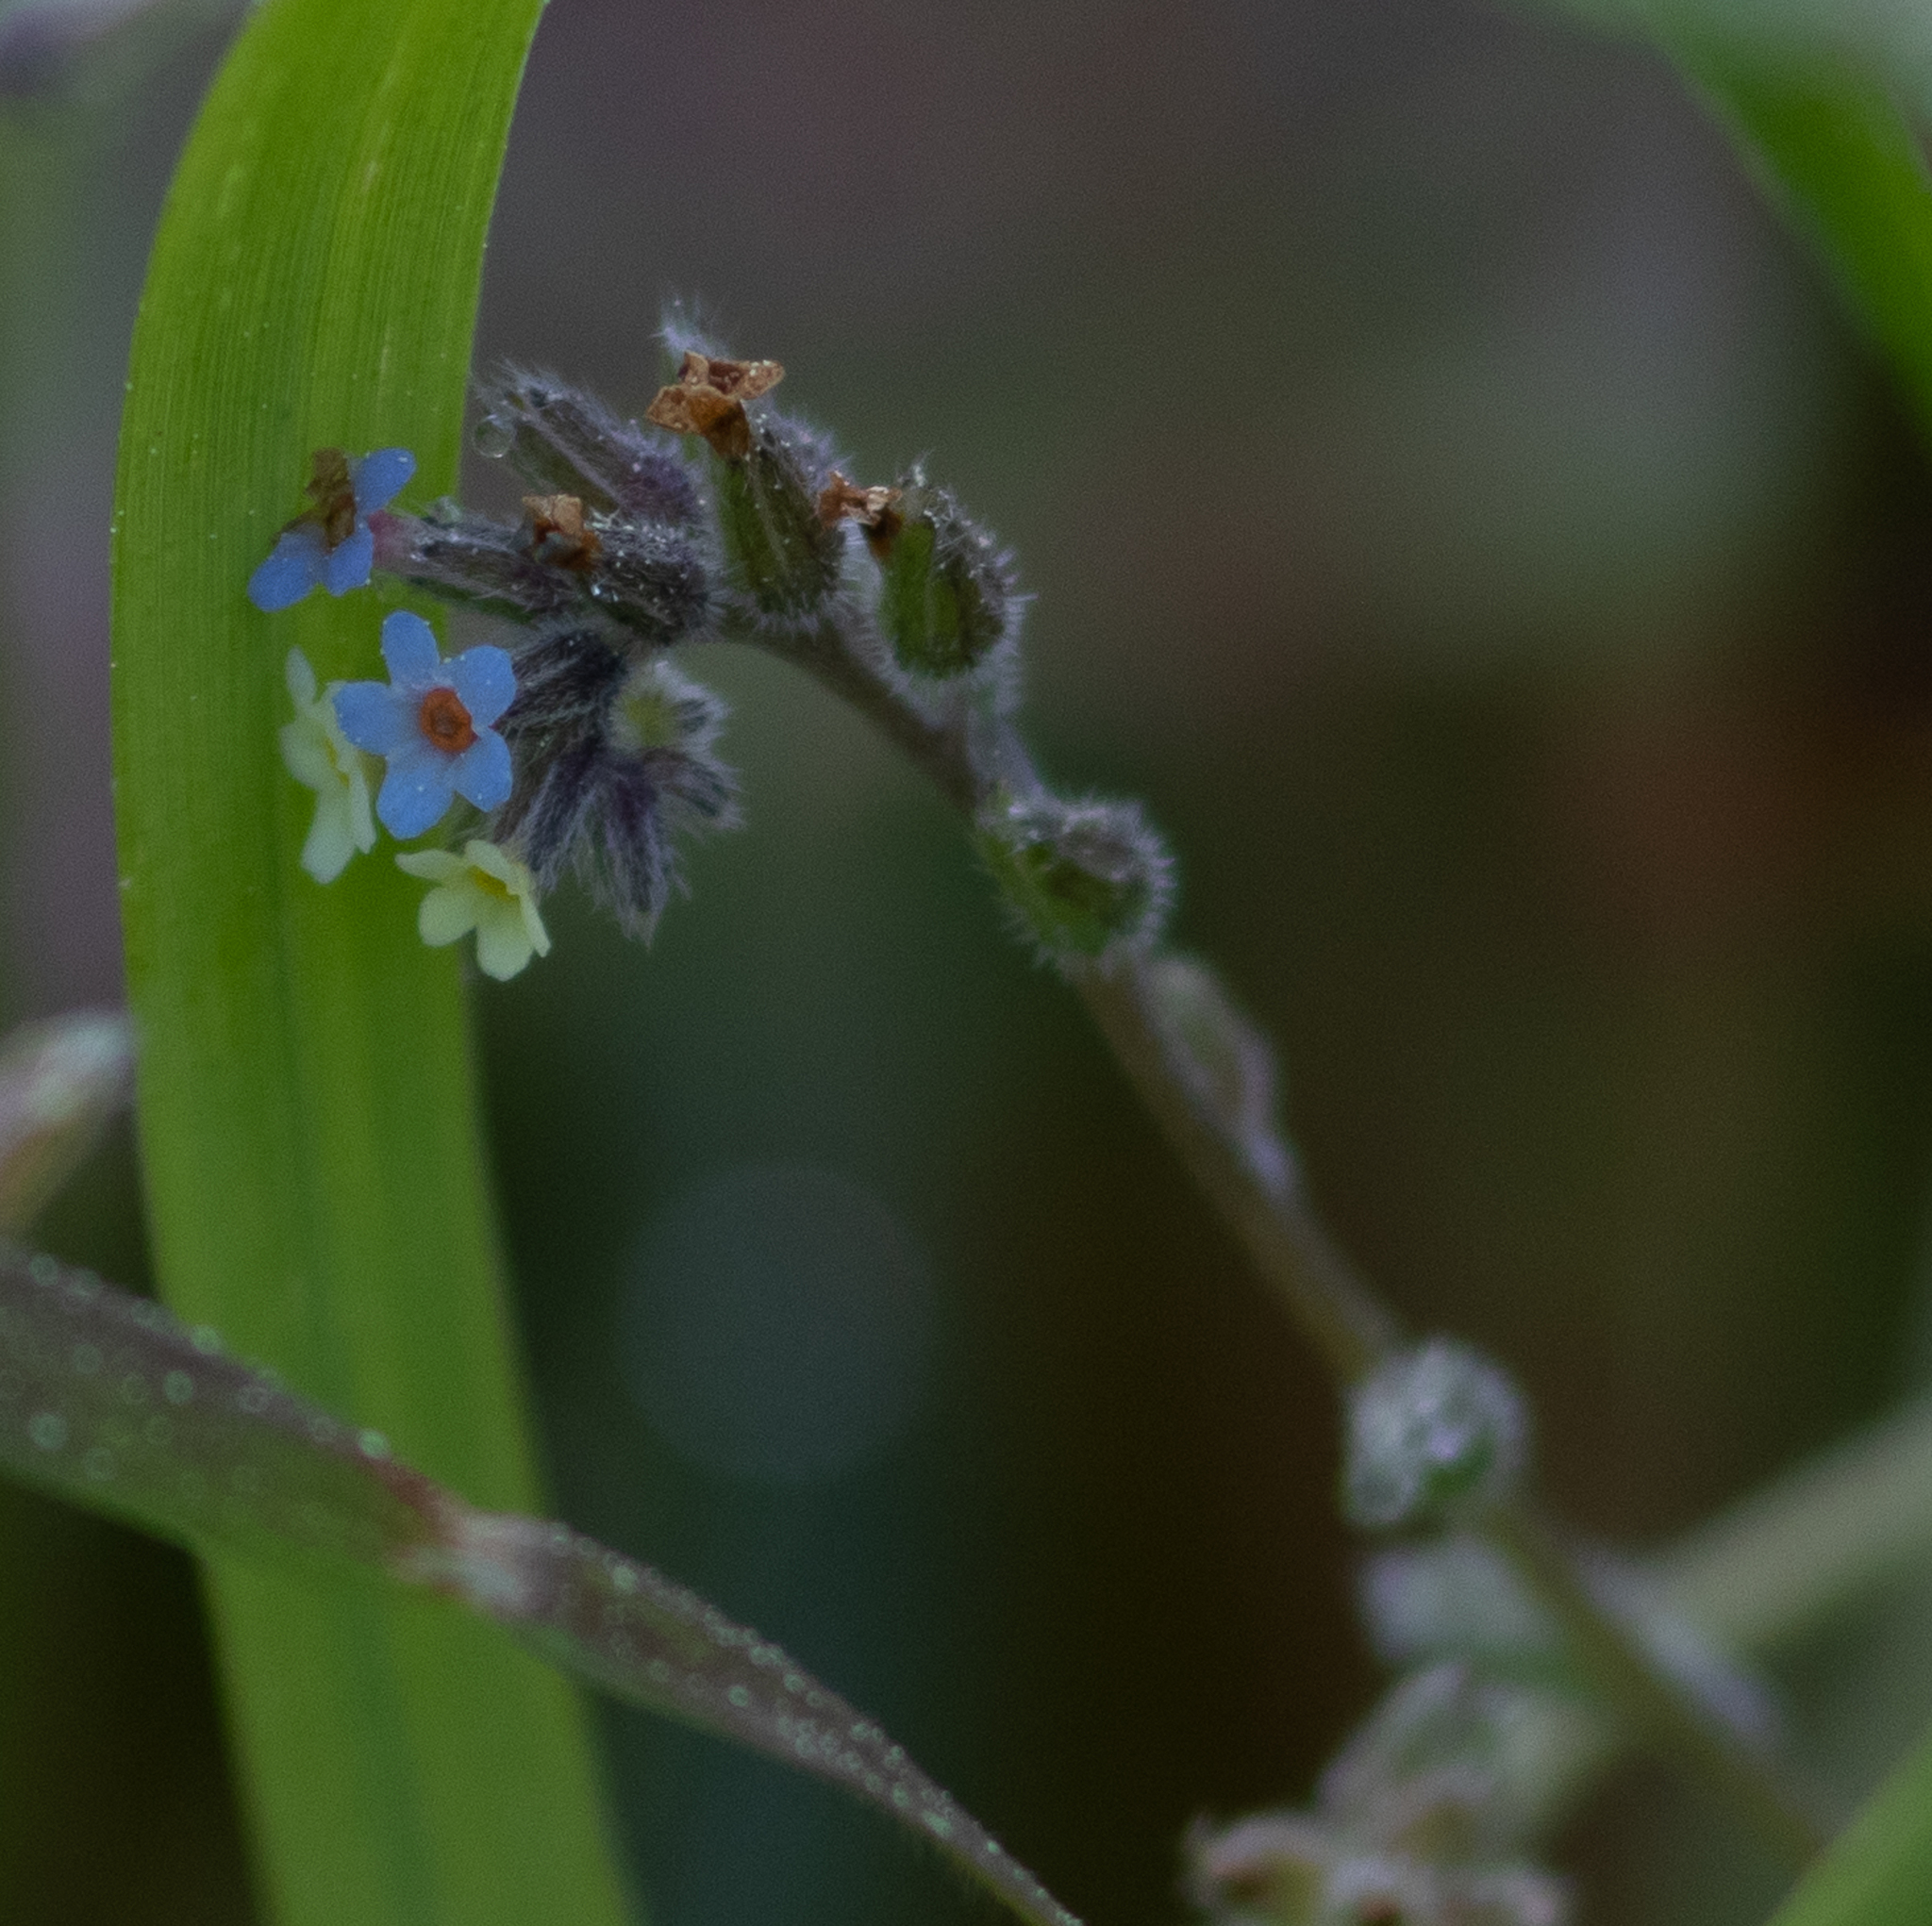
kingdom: Plantae
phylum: Tracheophyta
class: Magnoliopsida
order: Boraginales
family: Boraginaceae
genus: Myosotis
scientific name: Myosotis discolor
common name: Changing forget-me-not
